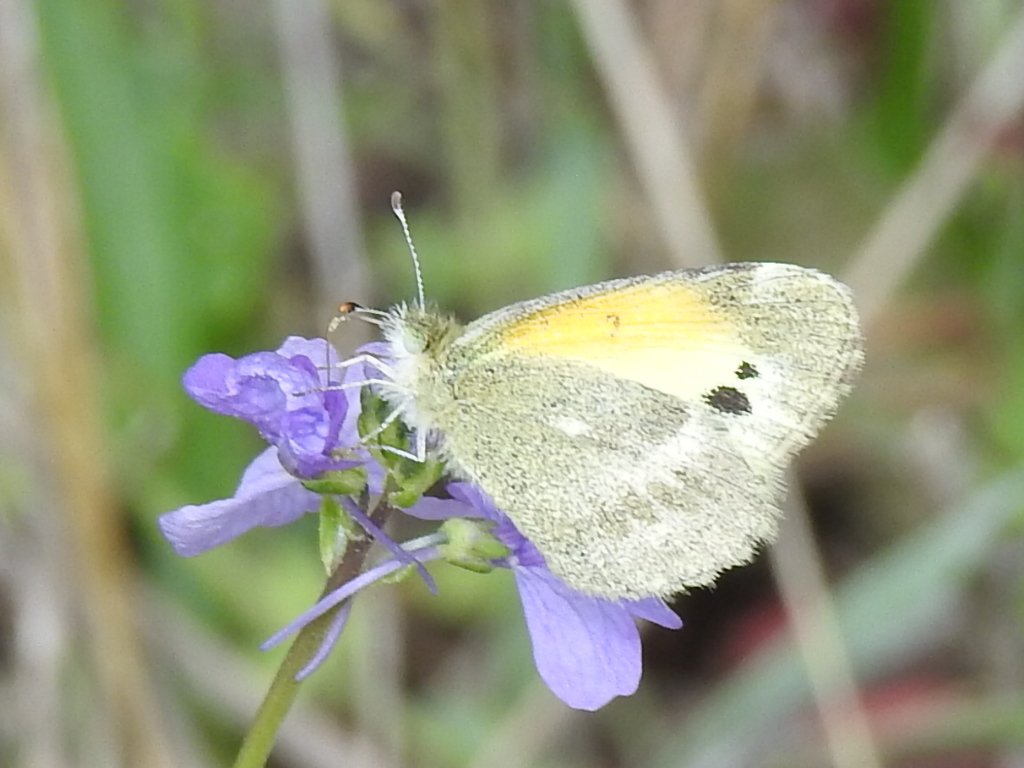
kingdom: Animalia
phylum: Arthropoda
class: Insecta
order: Lepidoptera
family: Pieridae
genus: Nathalis
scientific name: Nathalis iole
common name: Dainty sulphur
